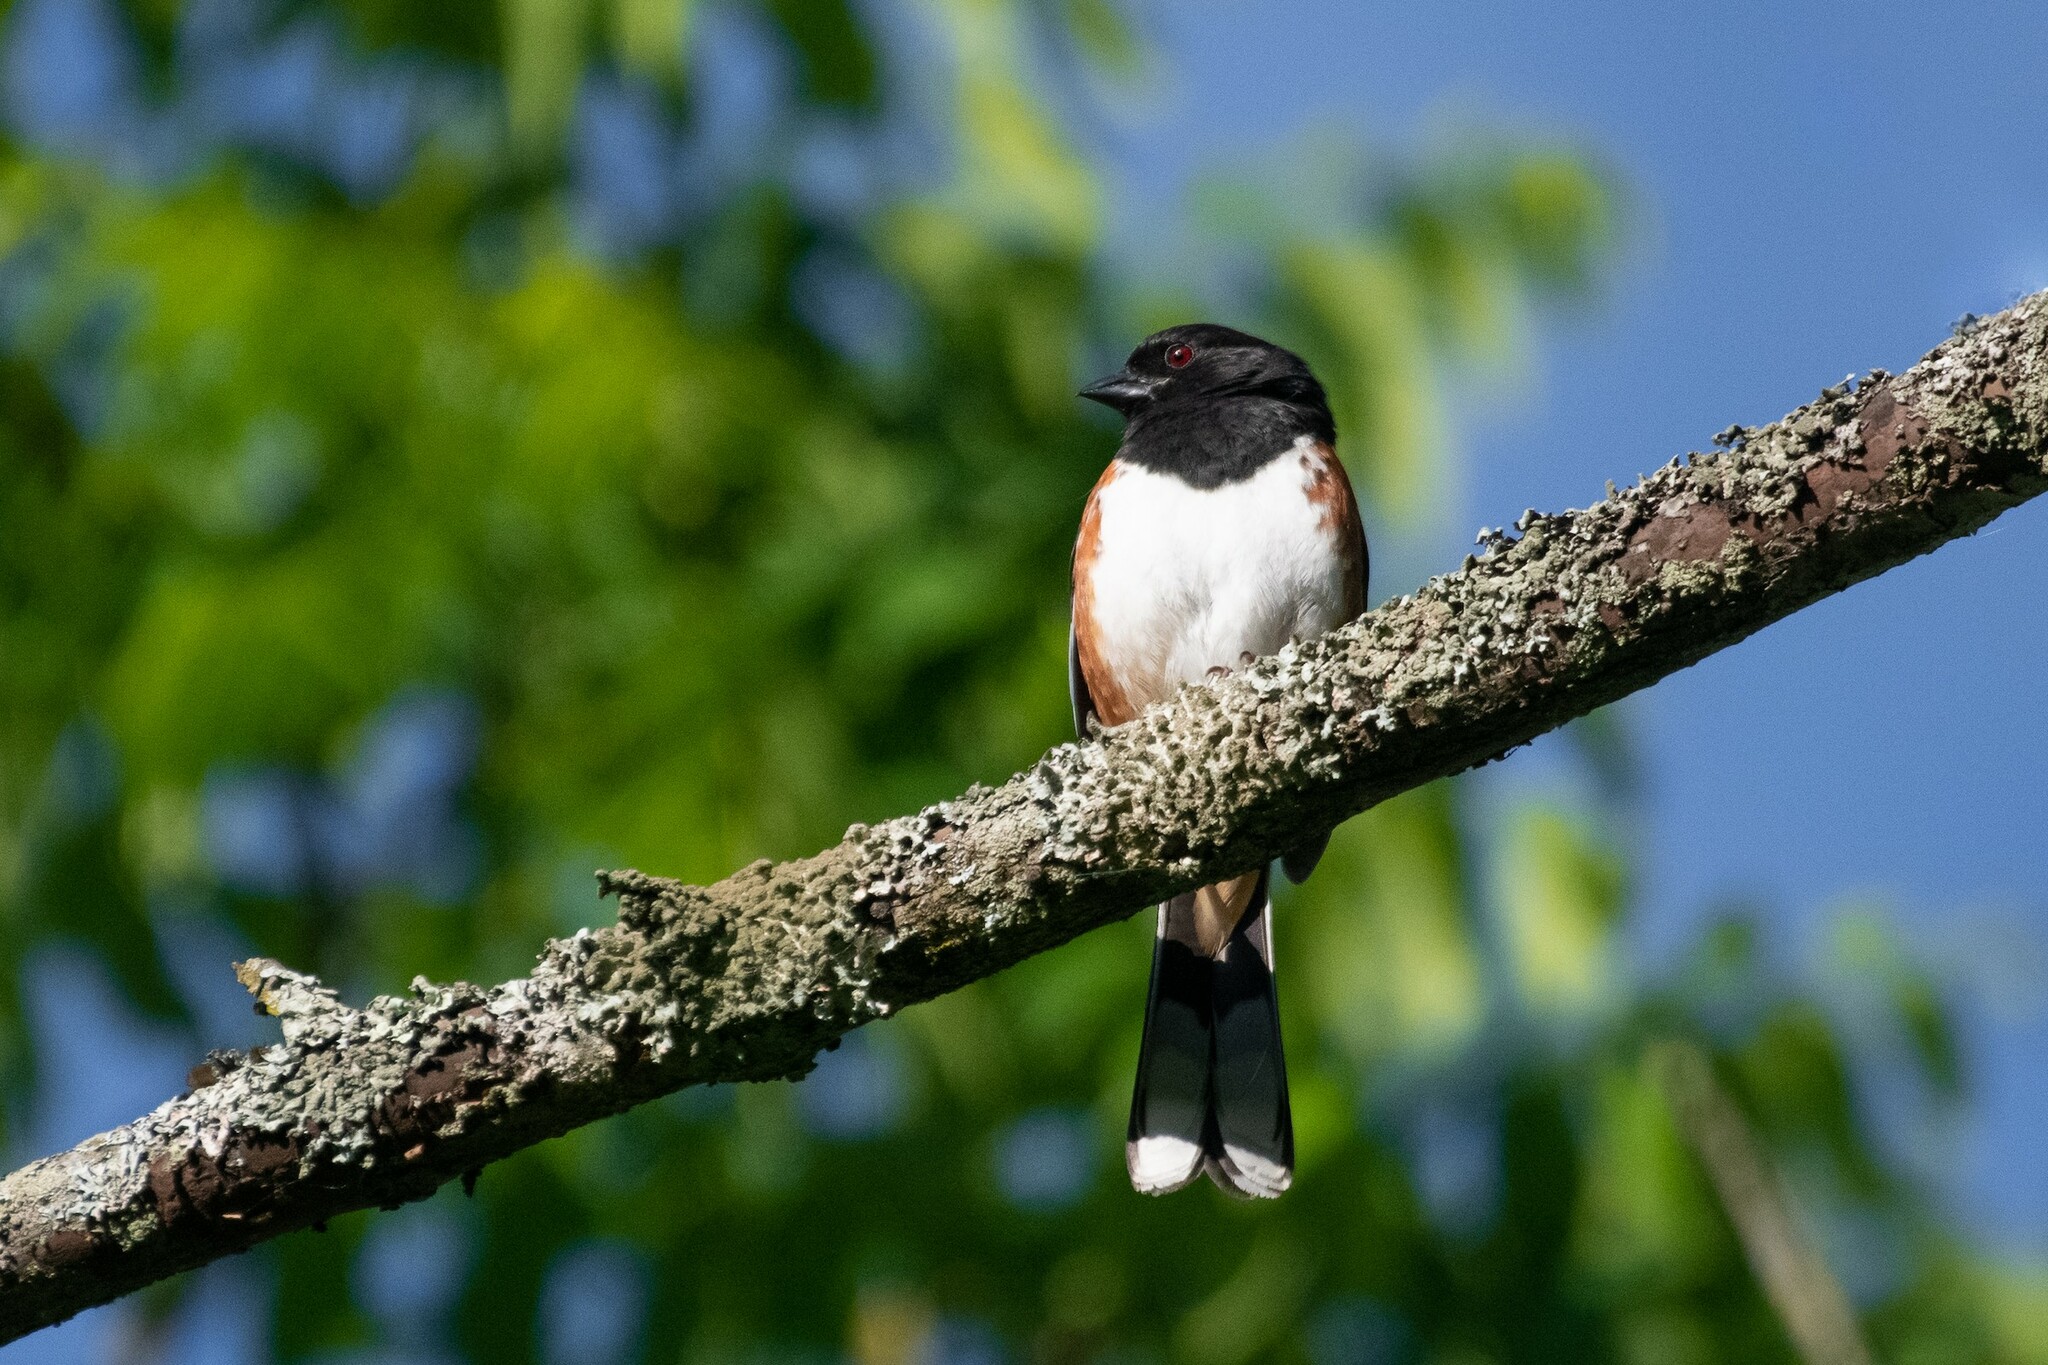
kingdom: Animalia
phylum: Chordata
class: Aves
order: Passeriformes
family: Passerellidae
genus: Pipilo
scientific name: Pipilo erythrophthalmus
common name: Eastern towhee
